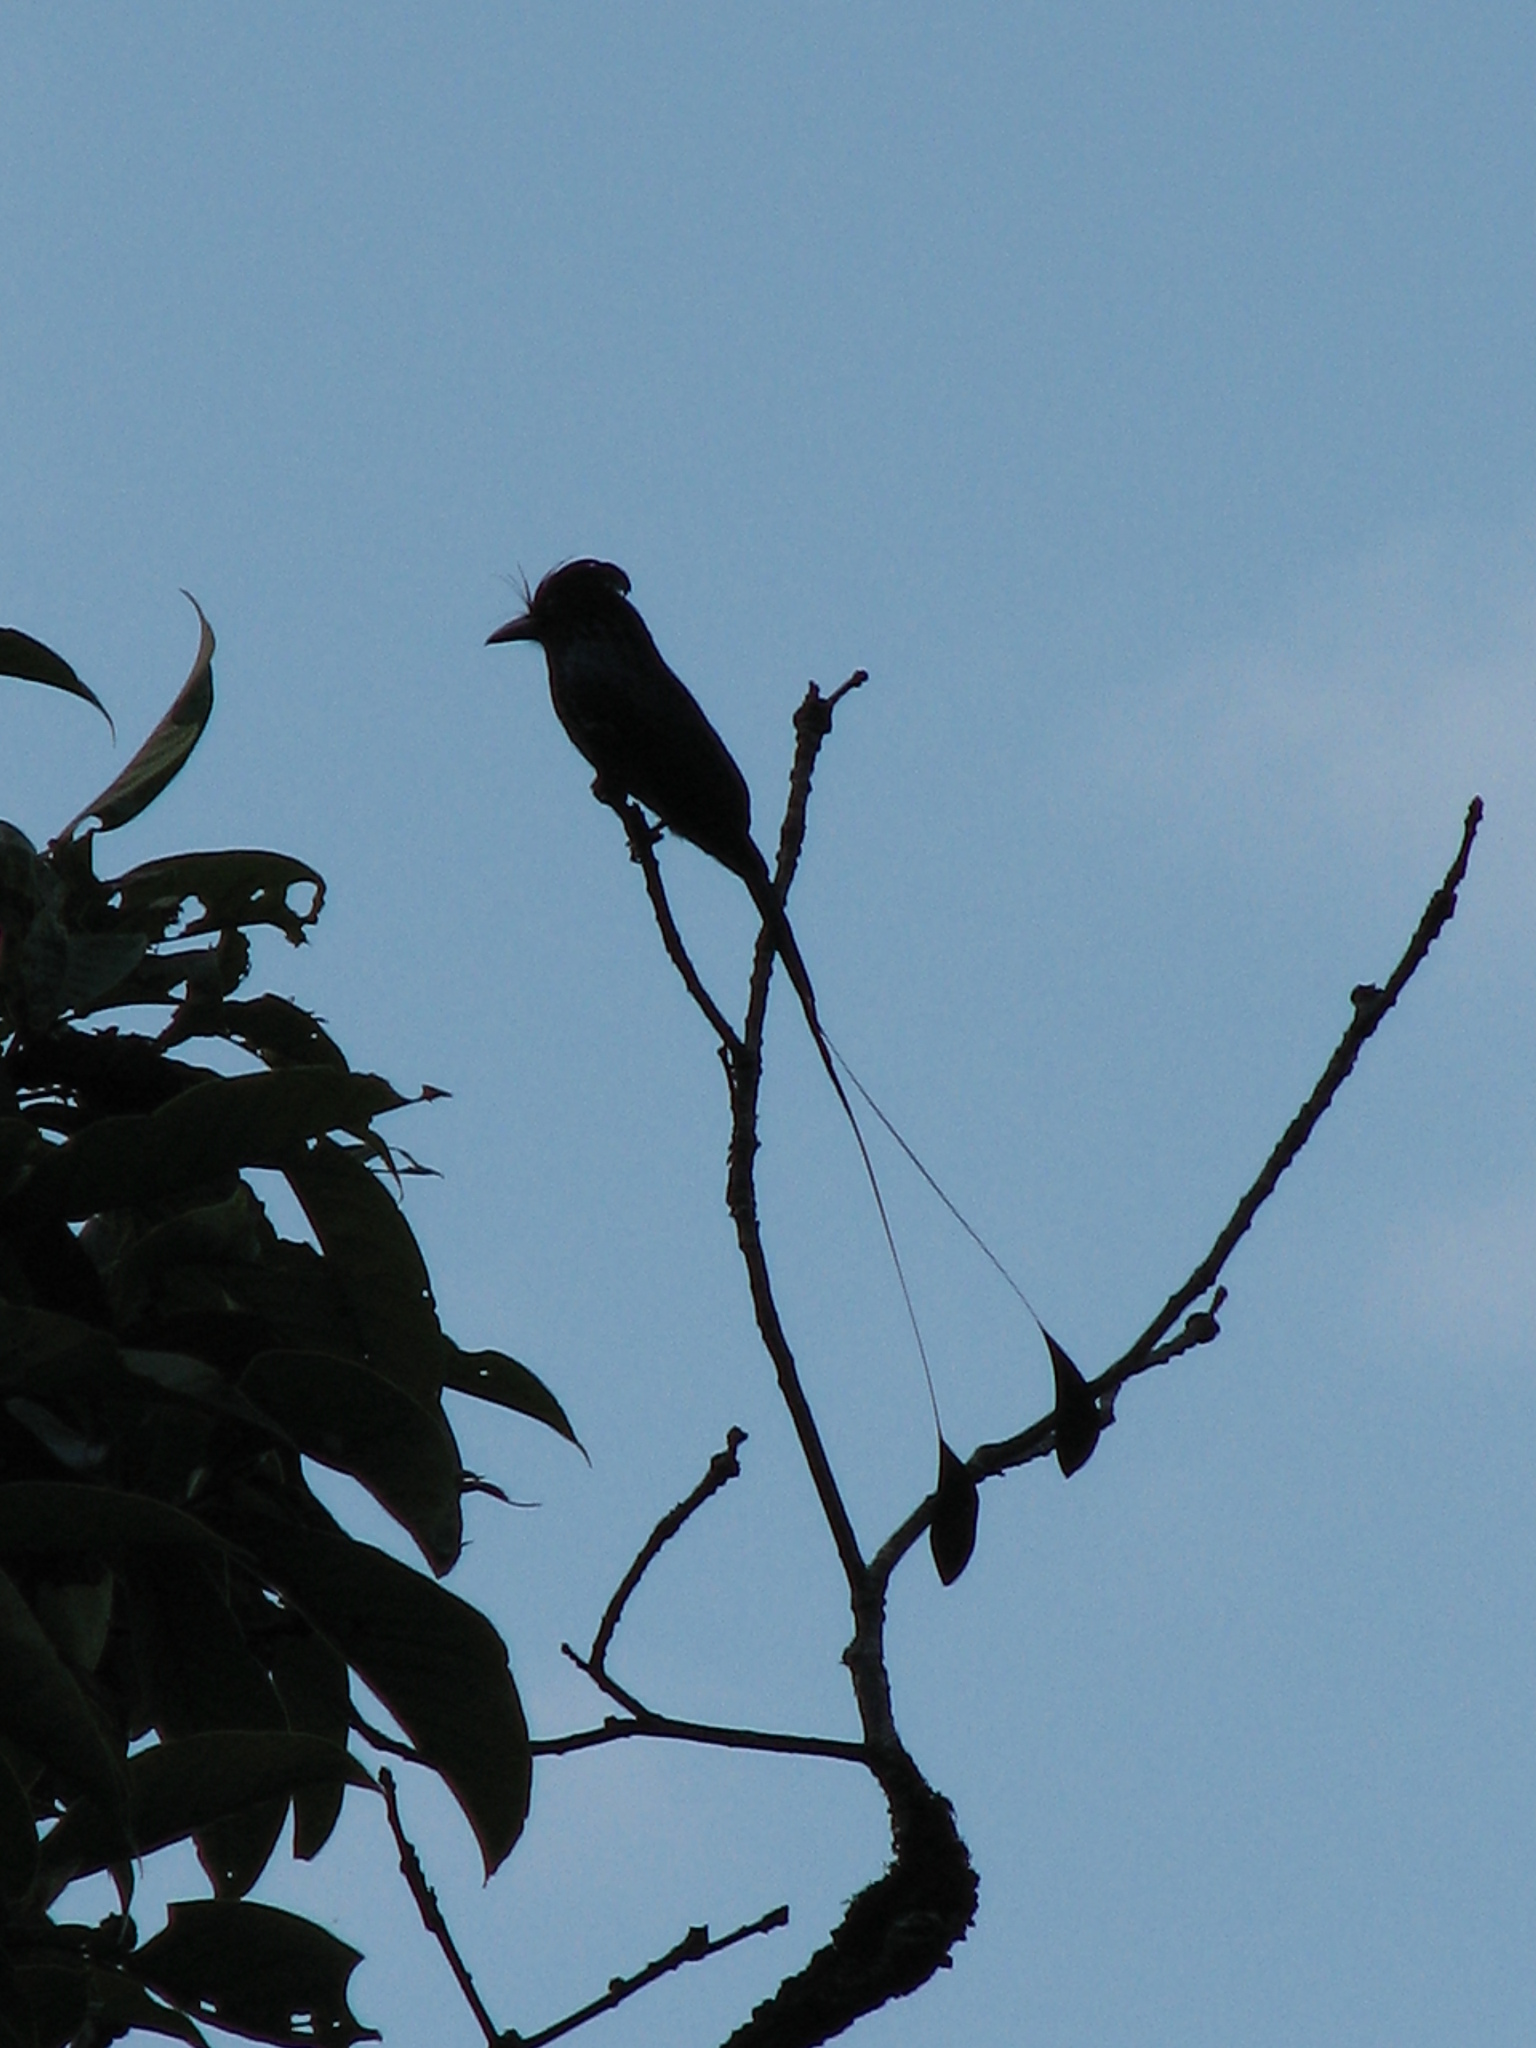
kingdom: Animalia
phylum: Chordata
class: Aves
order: Passeriformes
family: Dicruridae
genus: Dicrurus
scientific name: Dicrurus paradiseus
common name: Greater racket-tailed drongo
